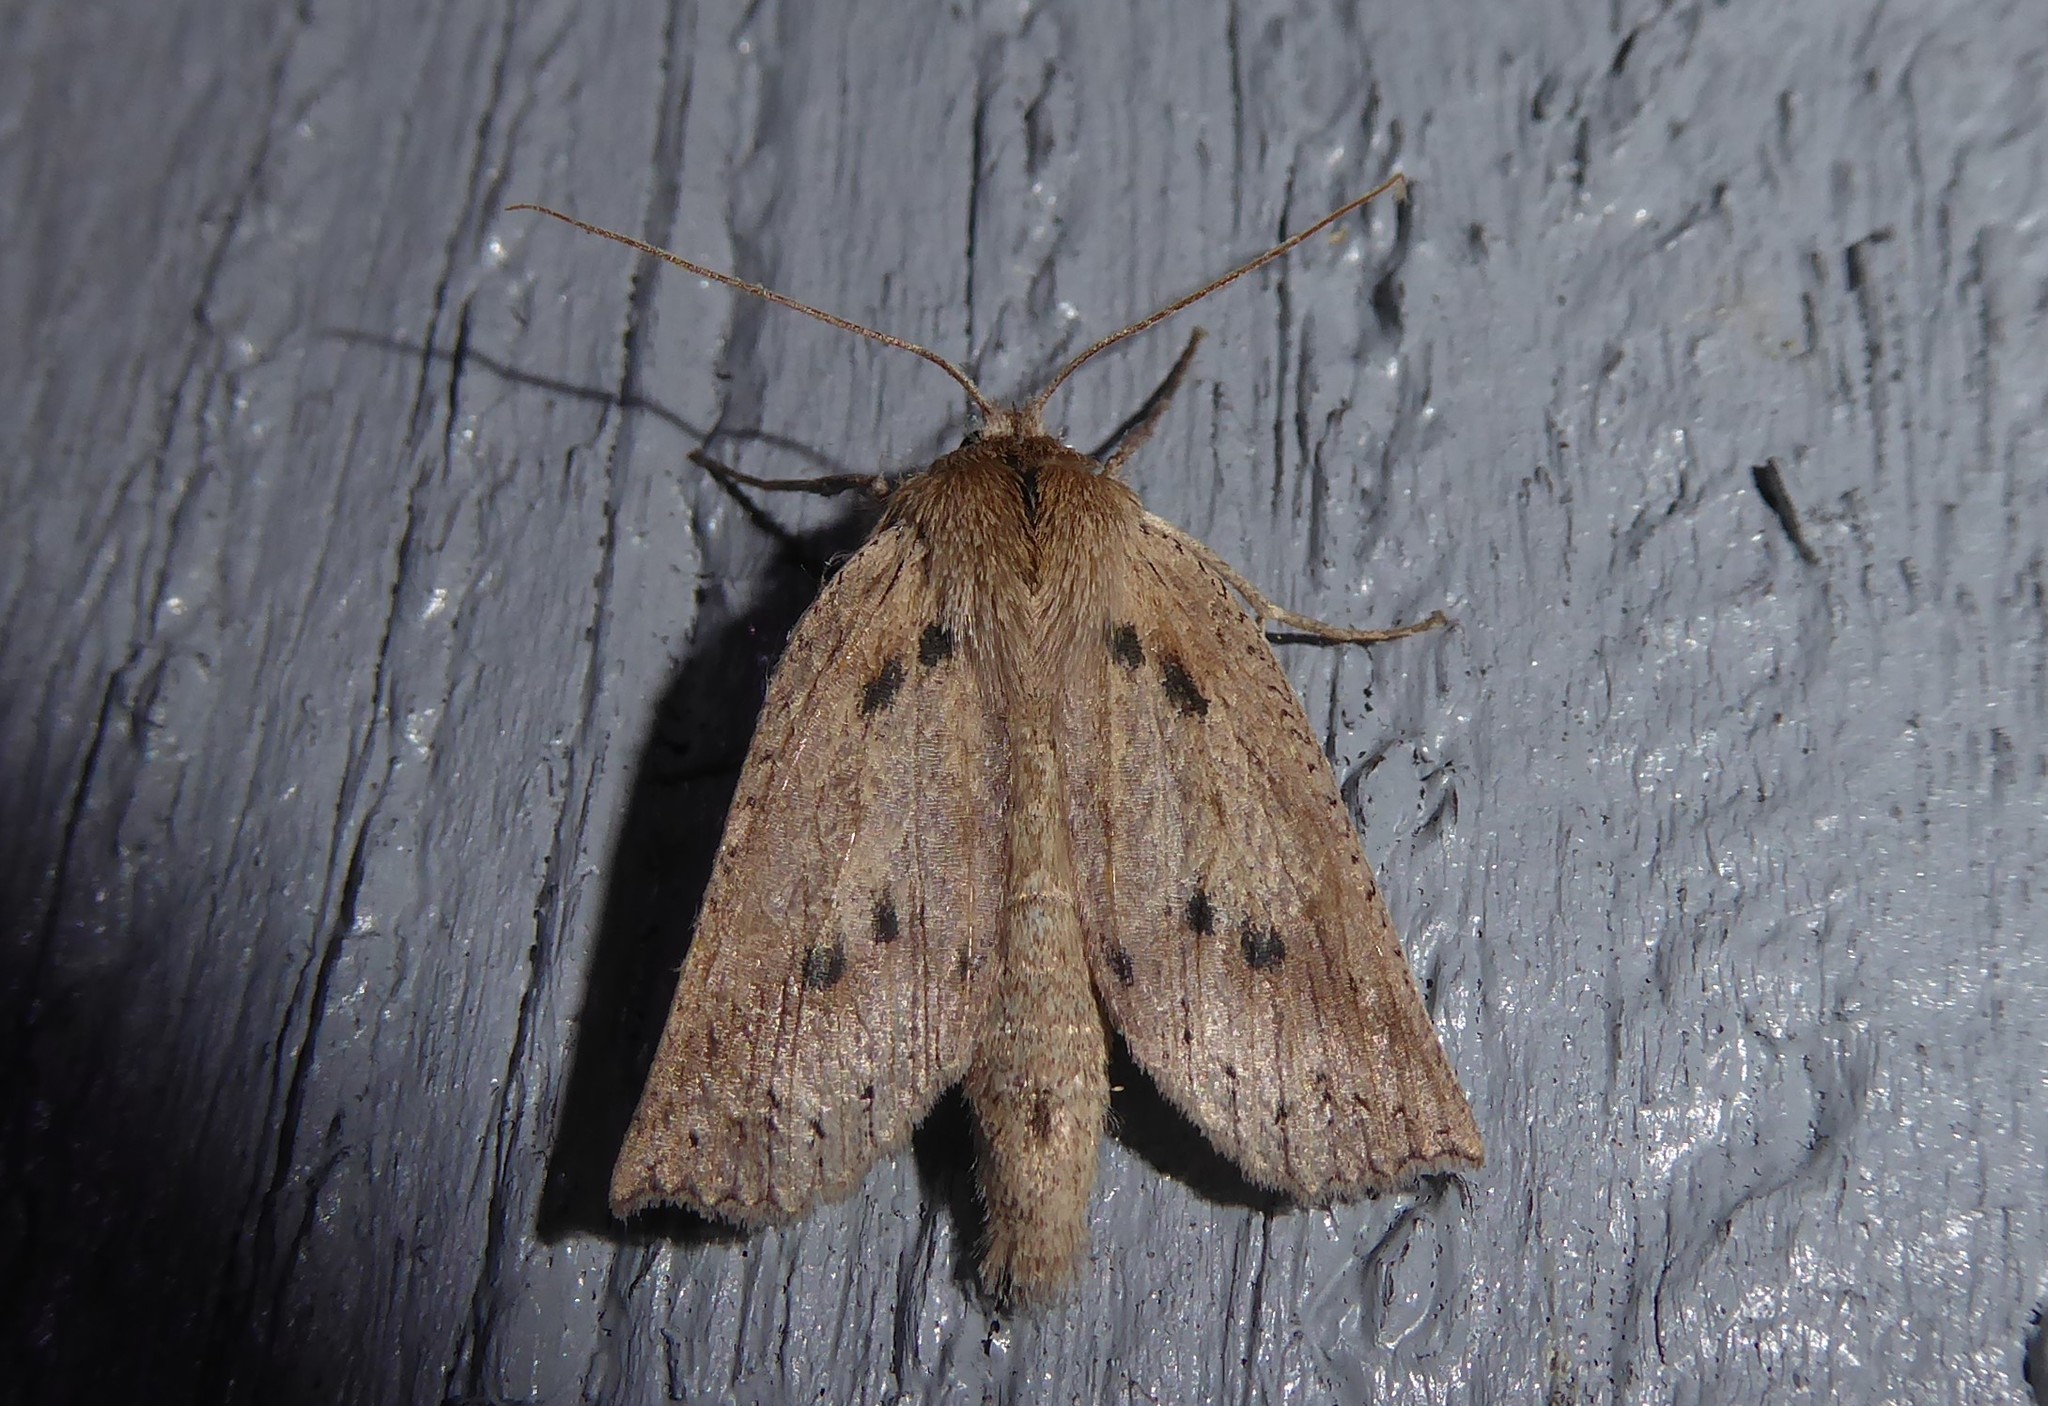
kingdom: Animalia
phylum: Arthropoda
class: Insecta
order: Lepidoptera
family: Geometridae
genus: Declana
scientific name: Declana leptomera
